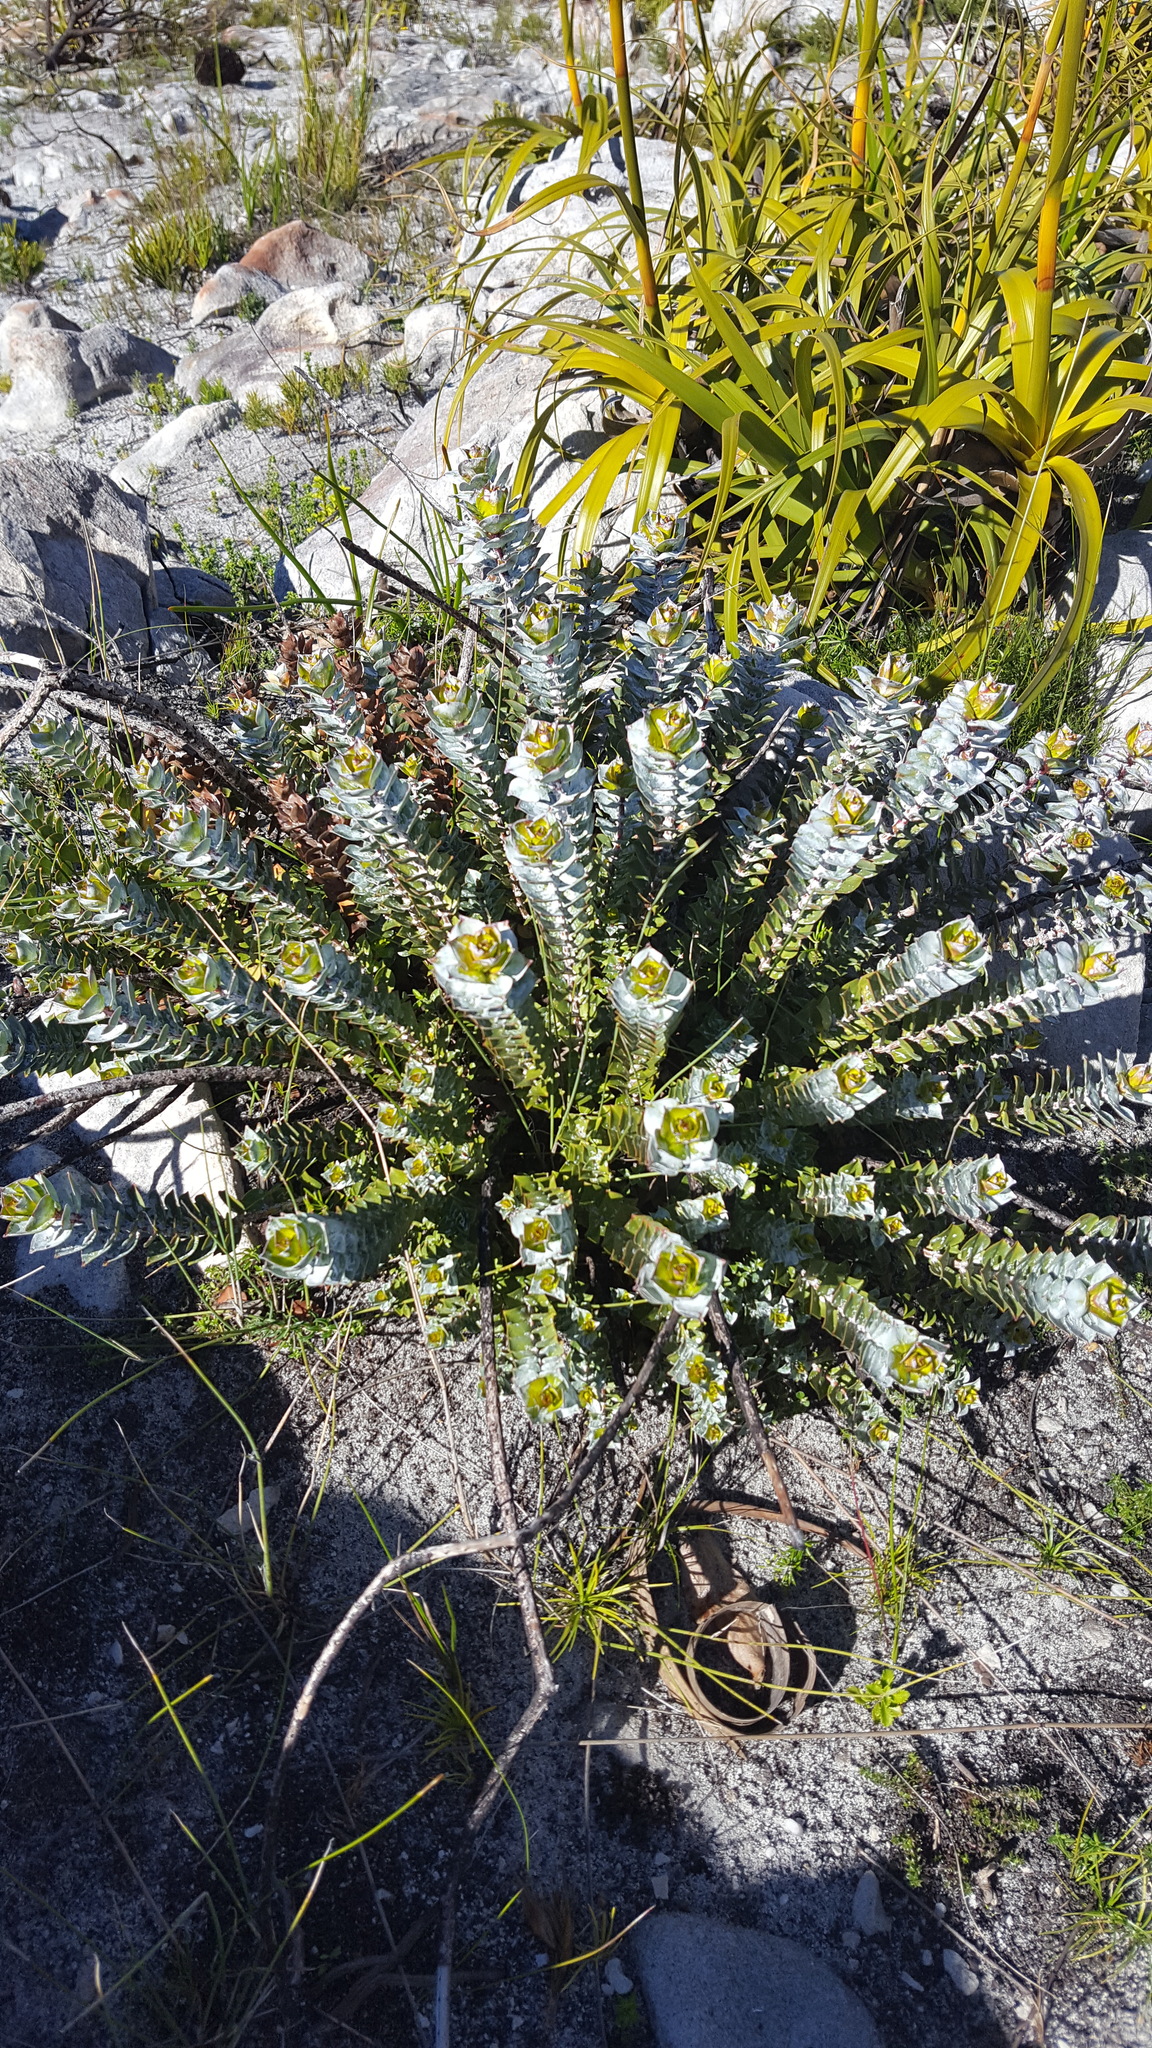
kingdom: Plantae
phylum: Tracheophyta
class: Magnoliopsida
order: Myrtales
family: Penaeaceae
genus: Saltera
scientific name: Saltera sarcocolla
